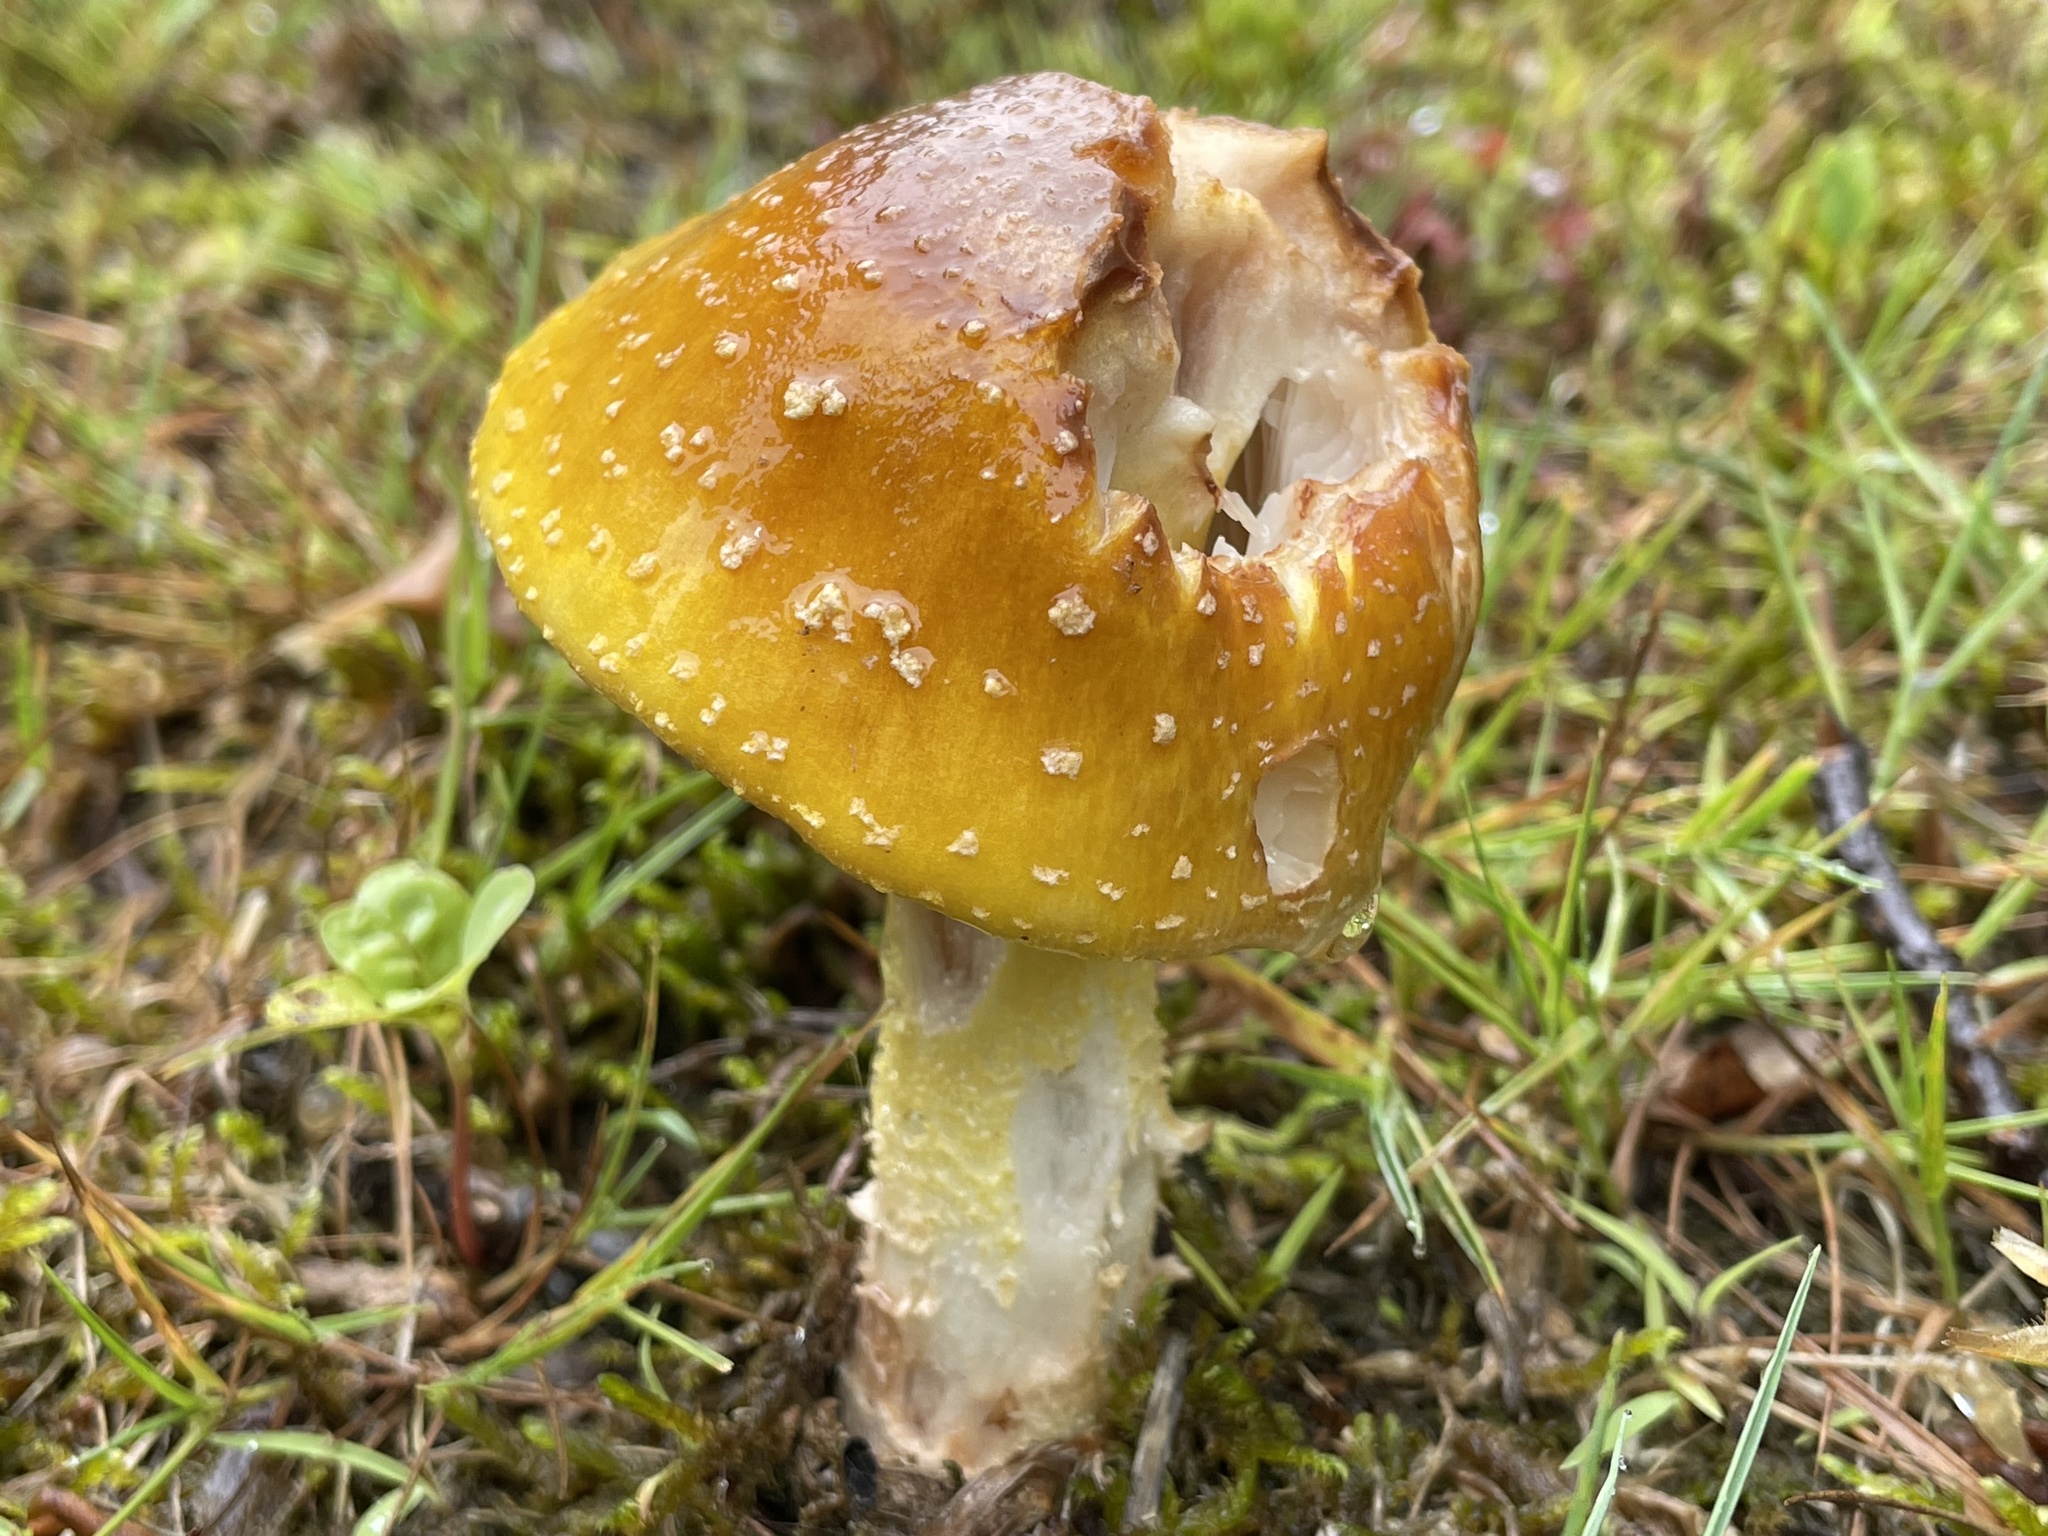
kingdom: Fungi
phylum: Basidiomycota
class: Agaricomycetes
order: Agaricales
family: Amanitaceae
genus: Amanita
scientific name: Amanita flavorubens
